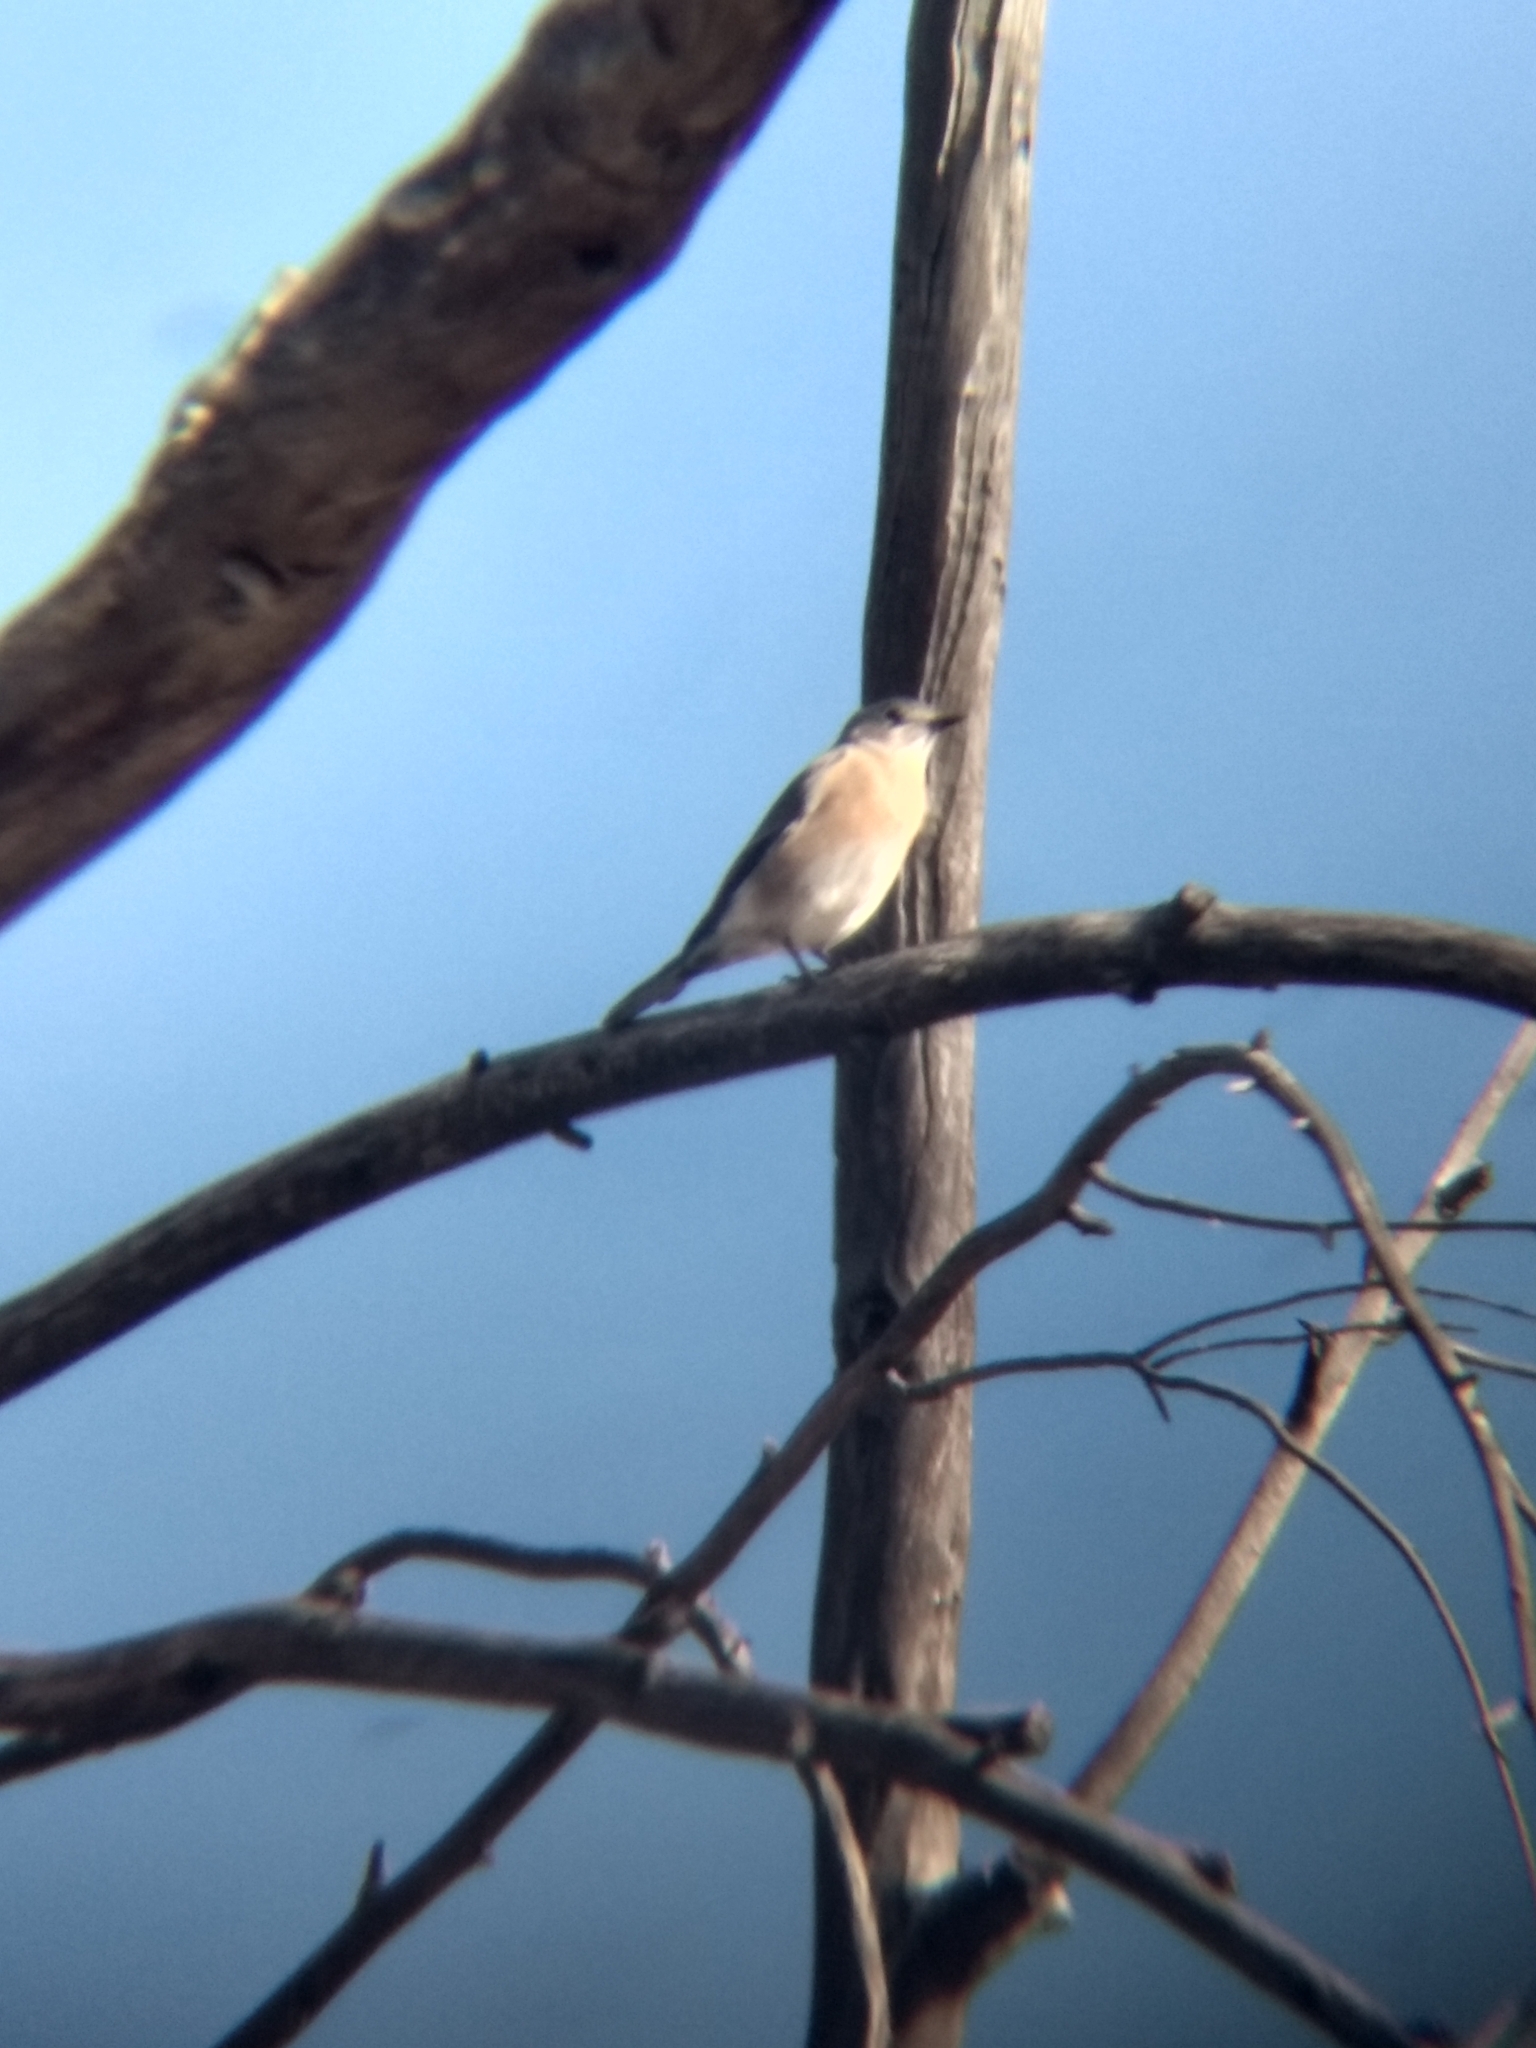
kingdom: Animalia
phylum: Chordata
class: Aves
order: Passeriformes
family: Turdidae
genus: Sialia
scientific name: Sialia mexicana
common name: Western bluebird
